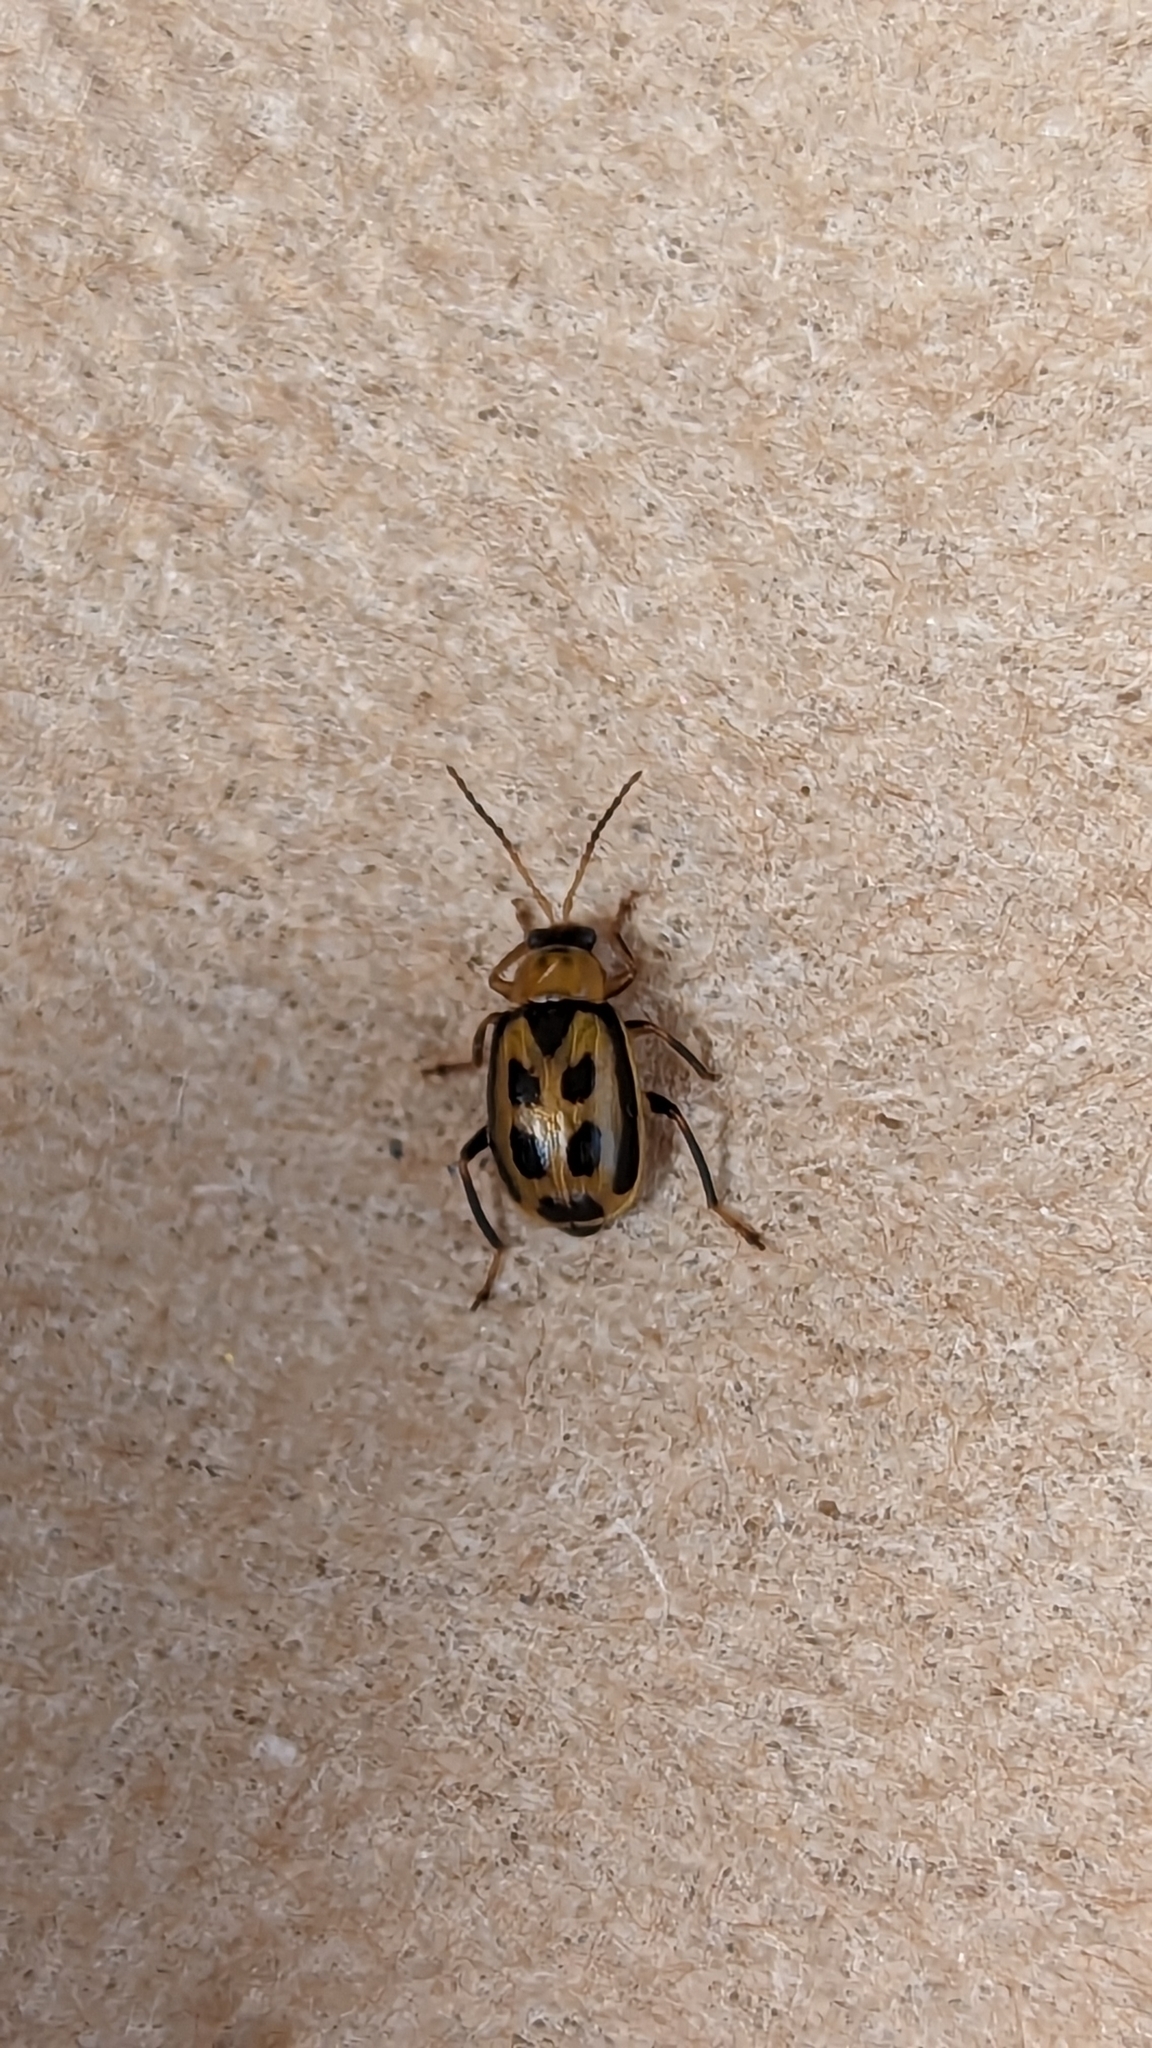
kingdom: Animalia
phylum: Arthropoda
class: Insecta
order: Coleoptera
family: Chrysomelidae
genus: Cerotoma
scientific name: Cerotoma trifurcata
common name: Bean leaf beetle
